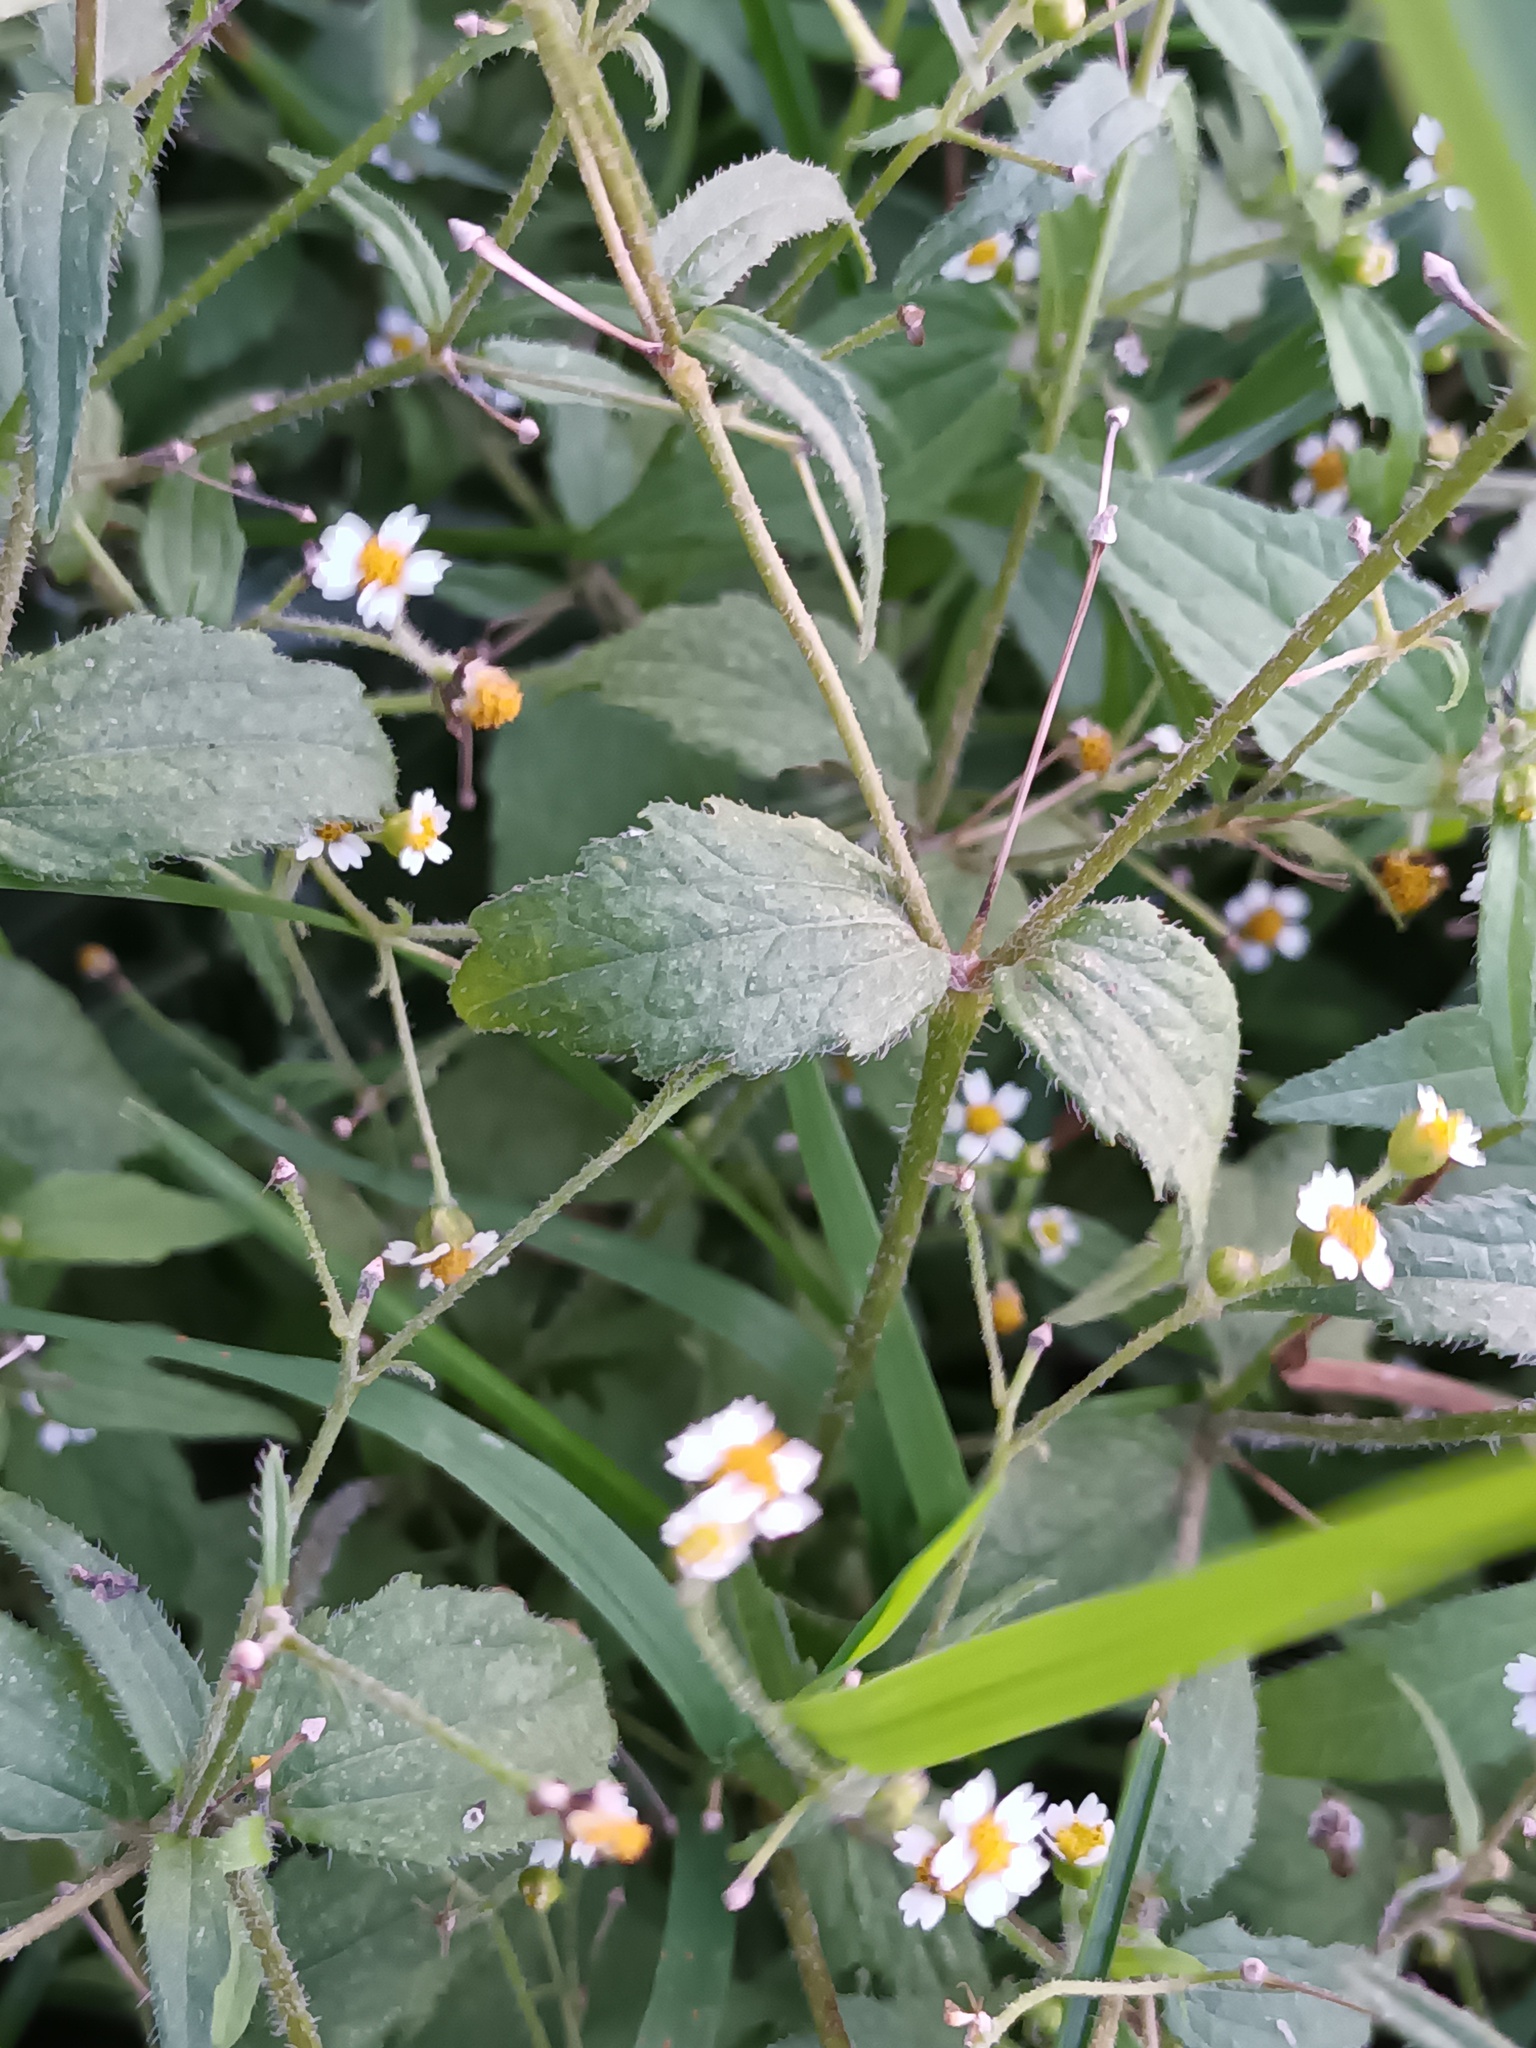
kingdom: Plantae
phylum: Tracheophyta
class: Magnoliopsida
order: Asterales
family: Asteraceae
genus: Galinsoga
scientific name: Galinsoga quadriradiata
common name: Shaggy soldier
